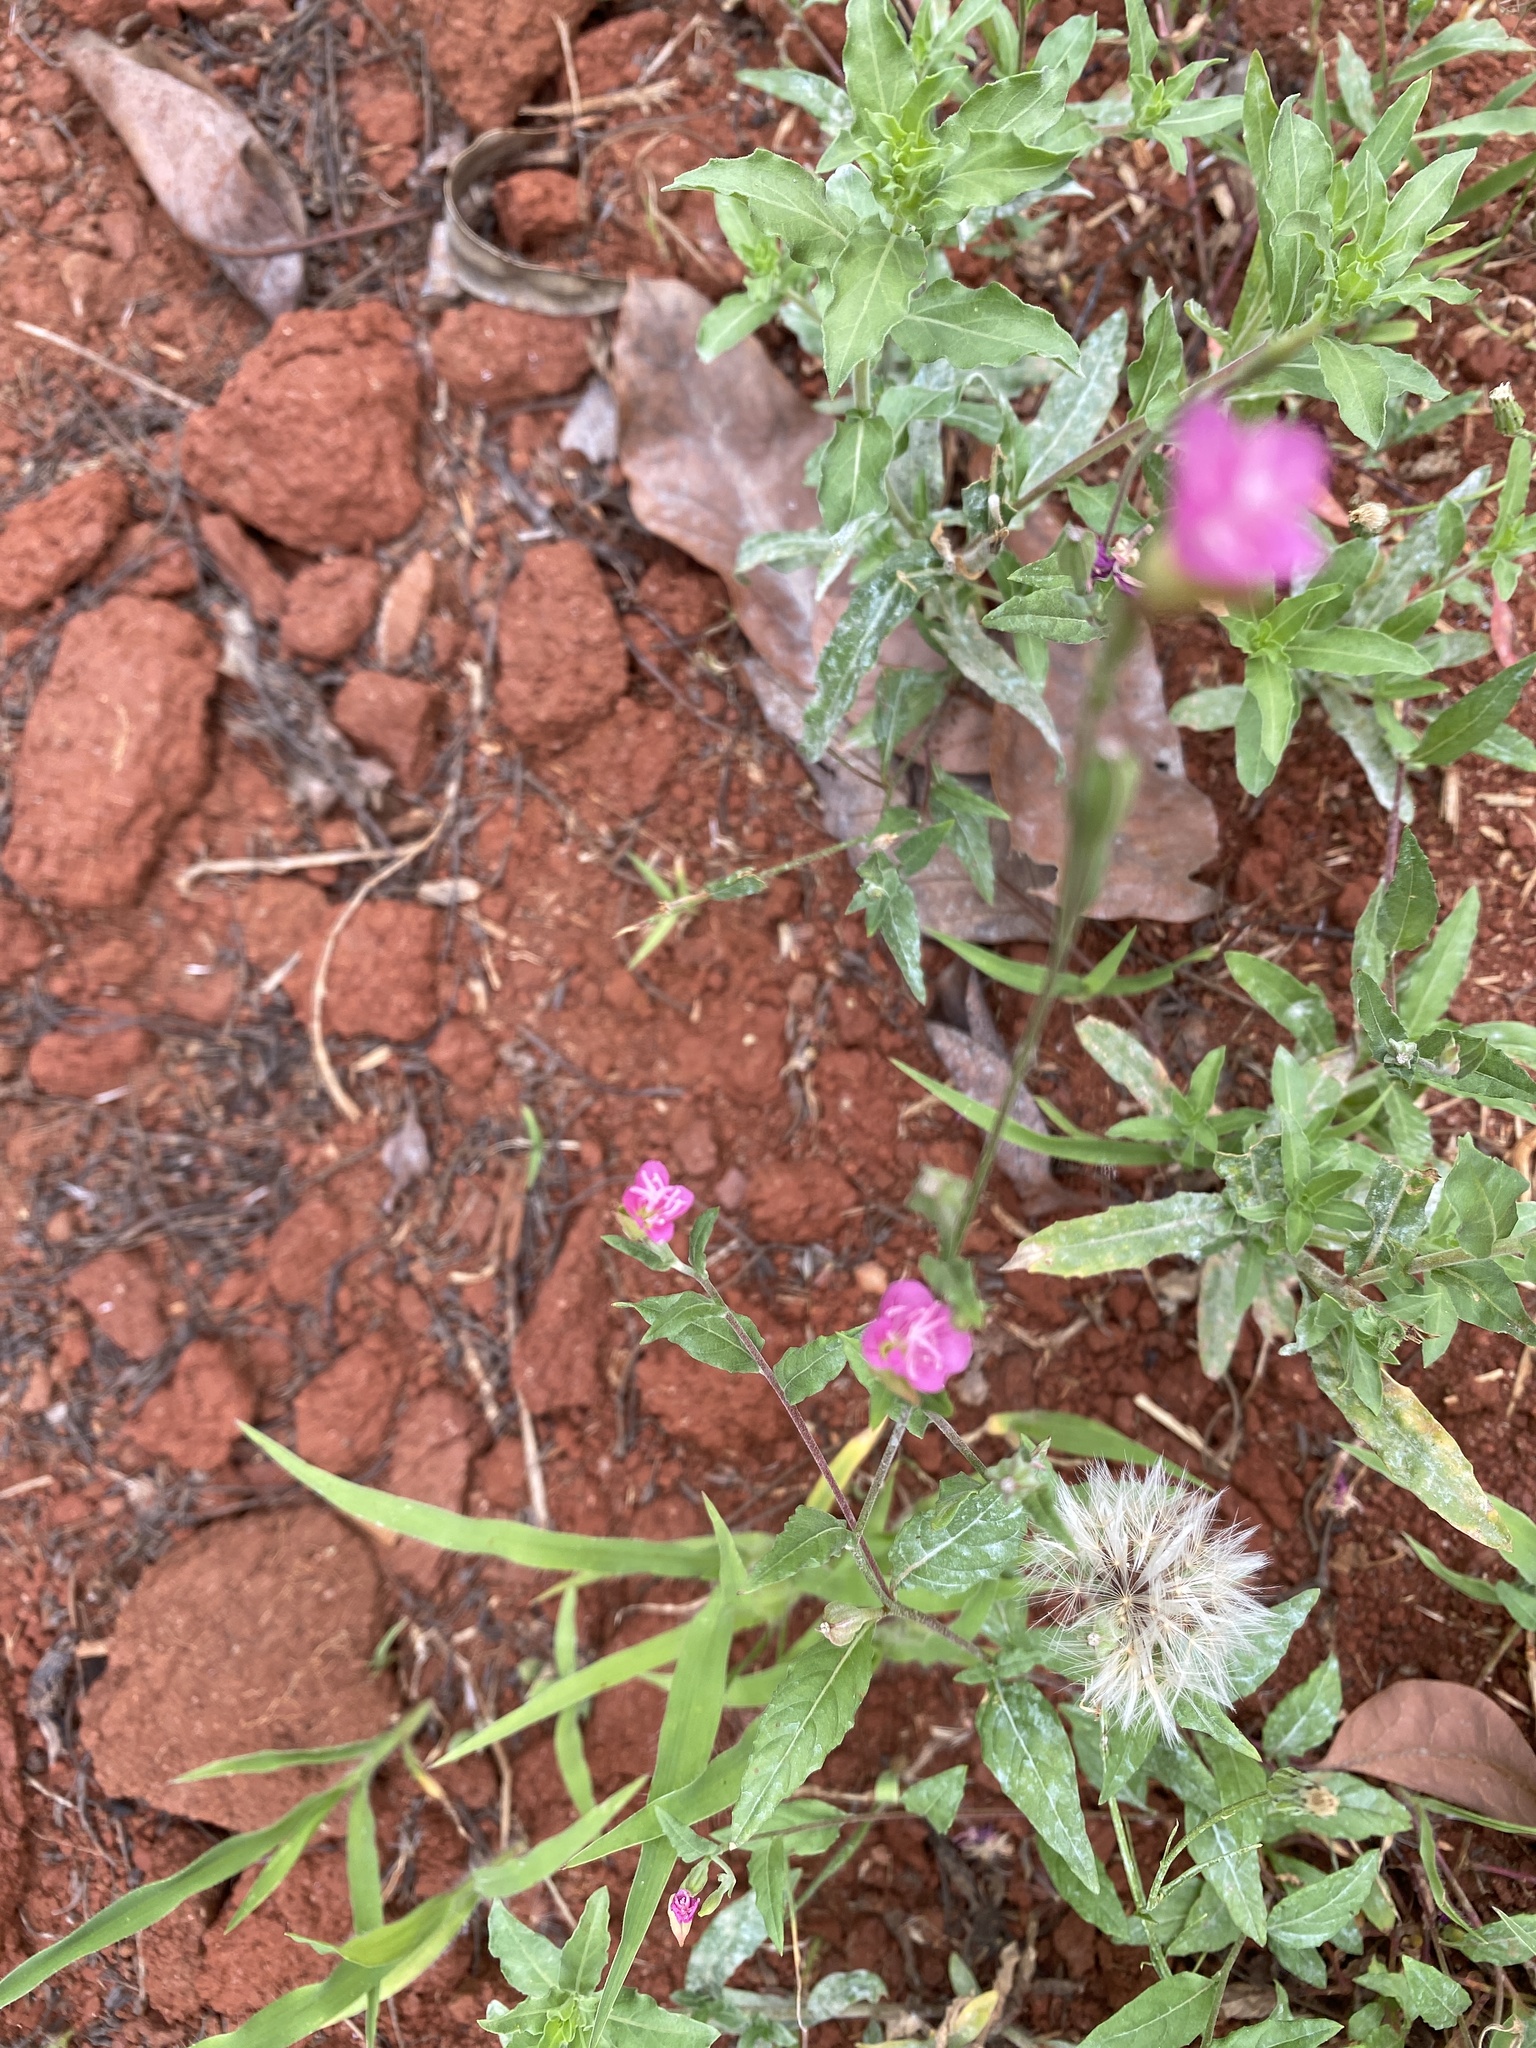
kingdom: Plantae
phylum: Tracheophyta
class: Magnoliopsida
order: Myrtales
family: Onagraceae
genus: Oenothera
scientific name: Oenothera rosea
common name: Rosy evening-primrose
